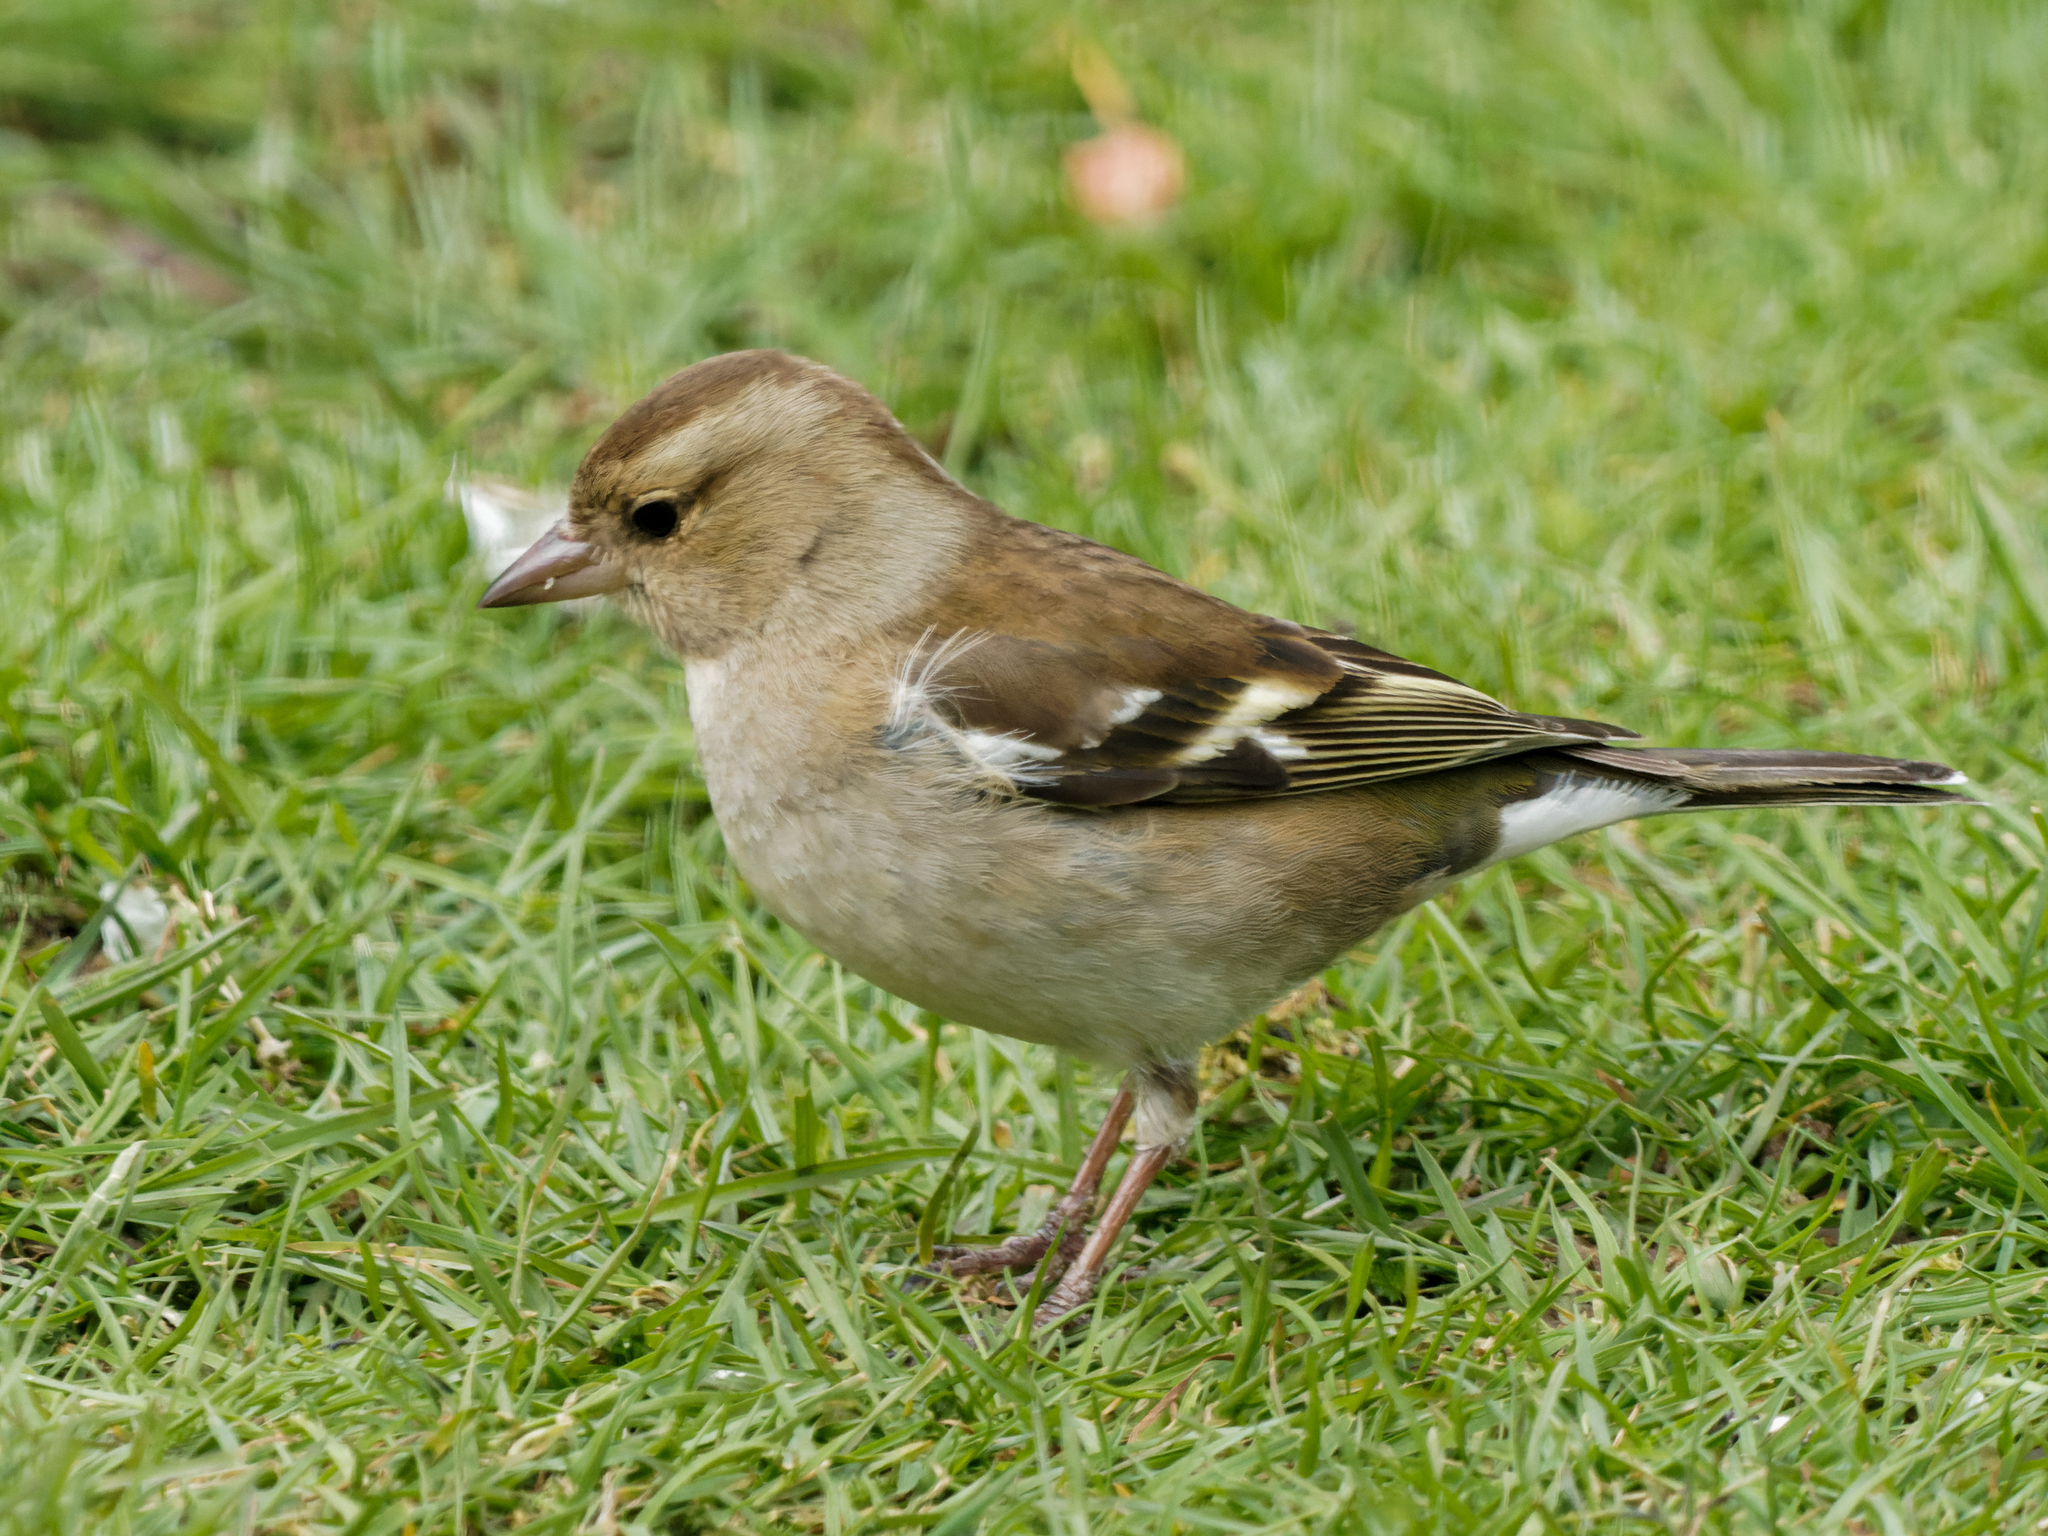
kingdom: Animalia
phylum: Chordata
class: Aves
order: Passeriformes
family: Fringillidae
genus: Fringilla
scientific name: Fringilla coelebs
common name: Common chaffinch
